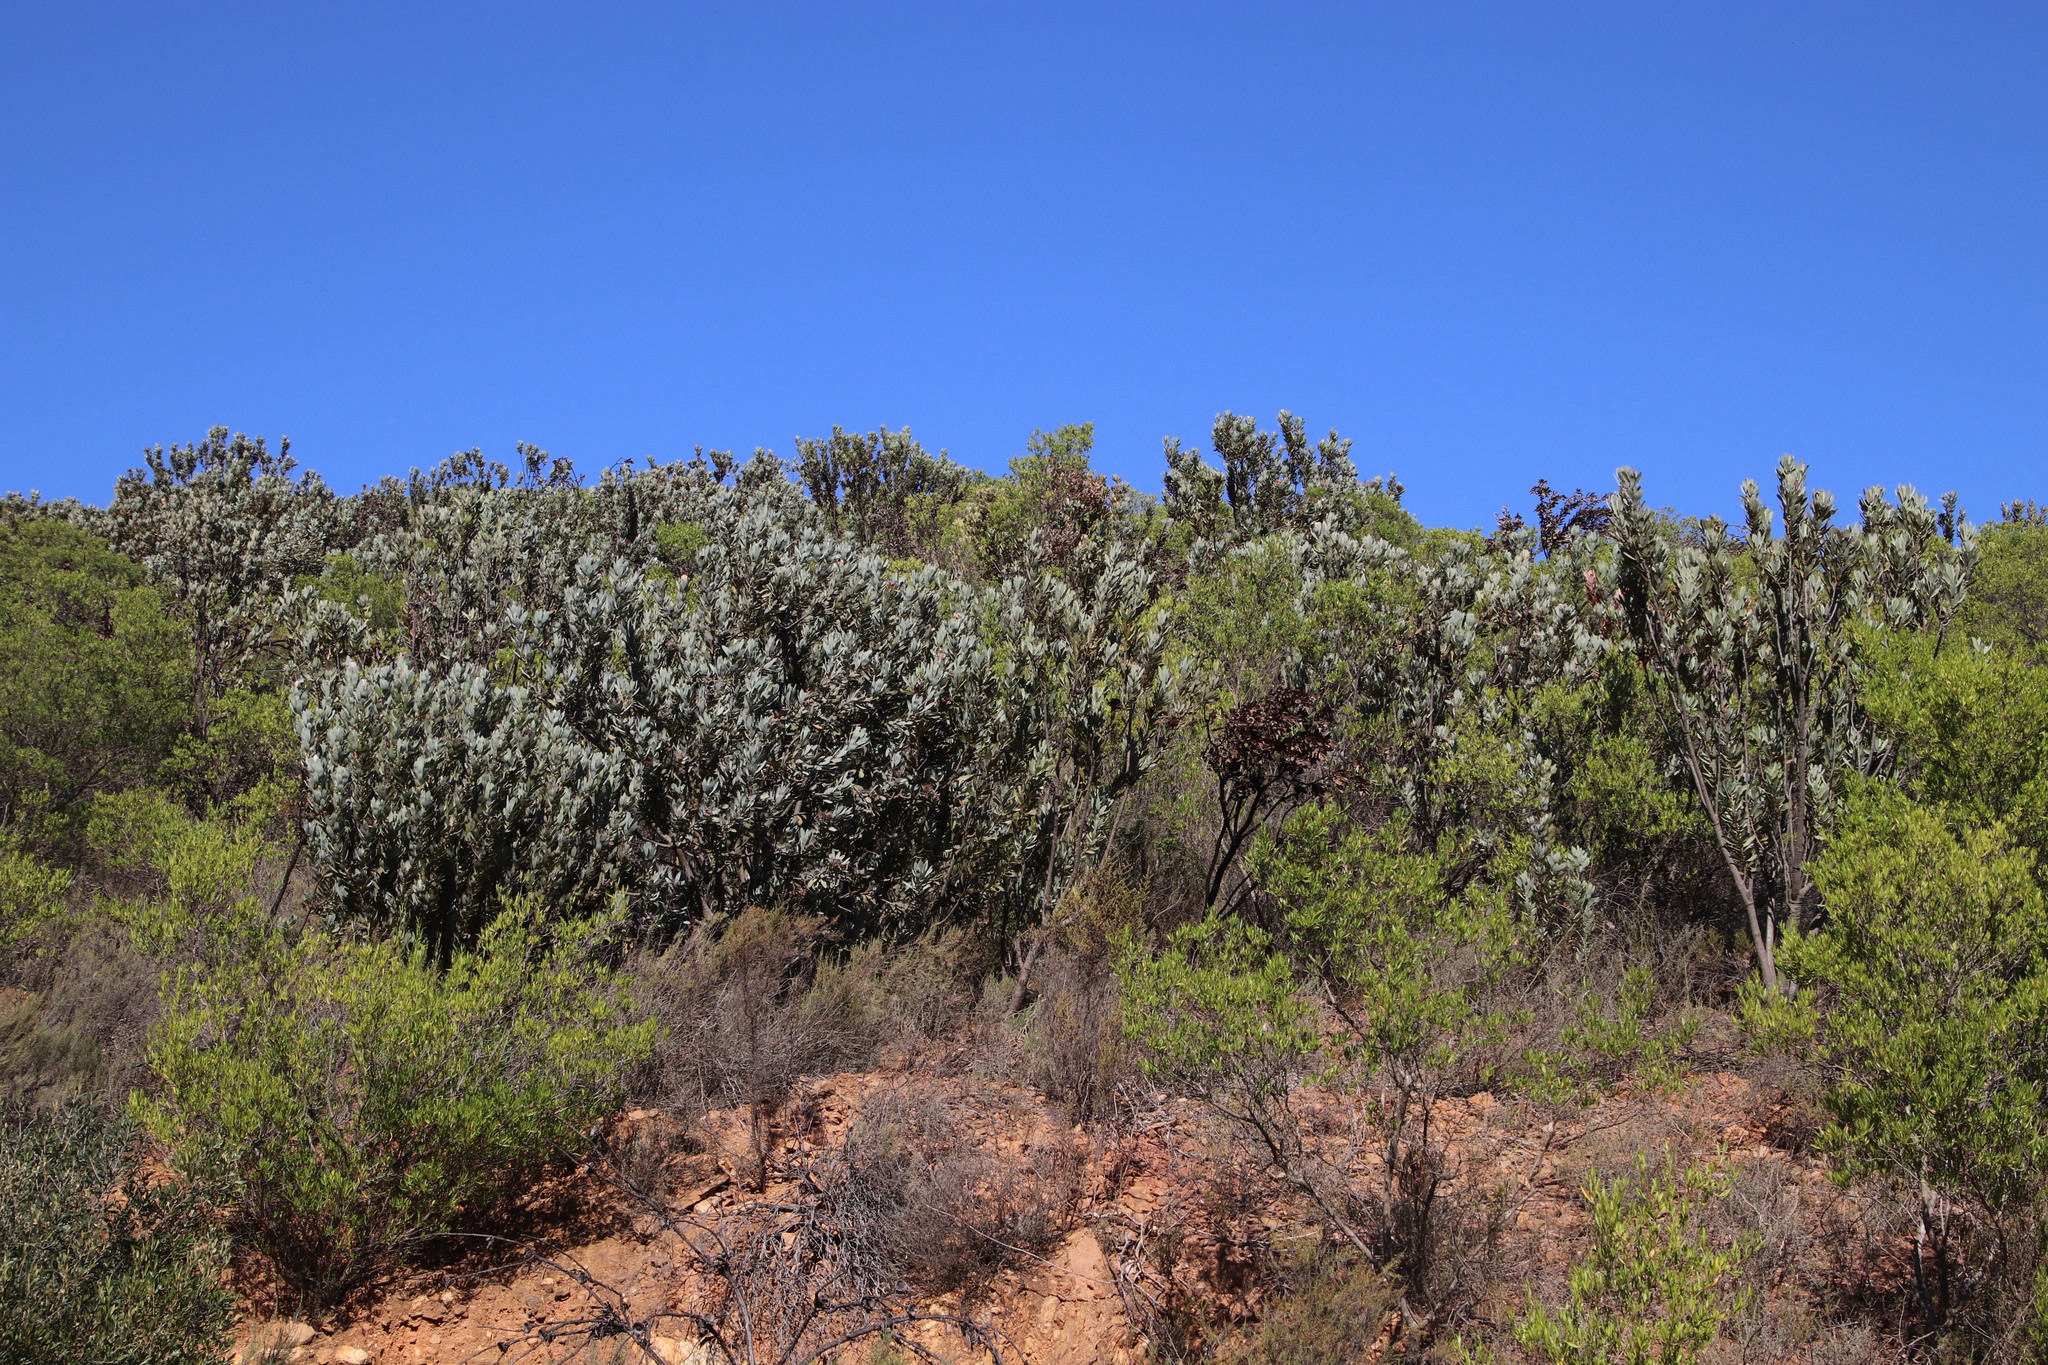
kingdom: Plantae
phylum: Tracheophyta
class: Magnoliopsida
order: Proteales
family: Proteaceae
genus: Protea
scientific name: Protea laurifolia
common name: Grey-leaf sugarbsh
